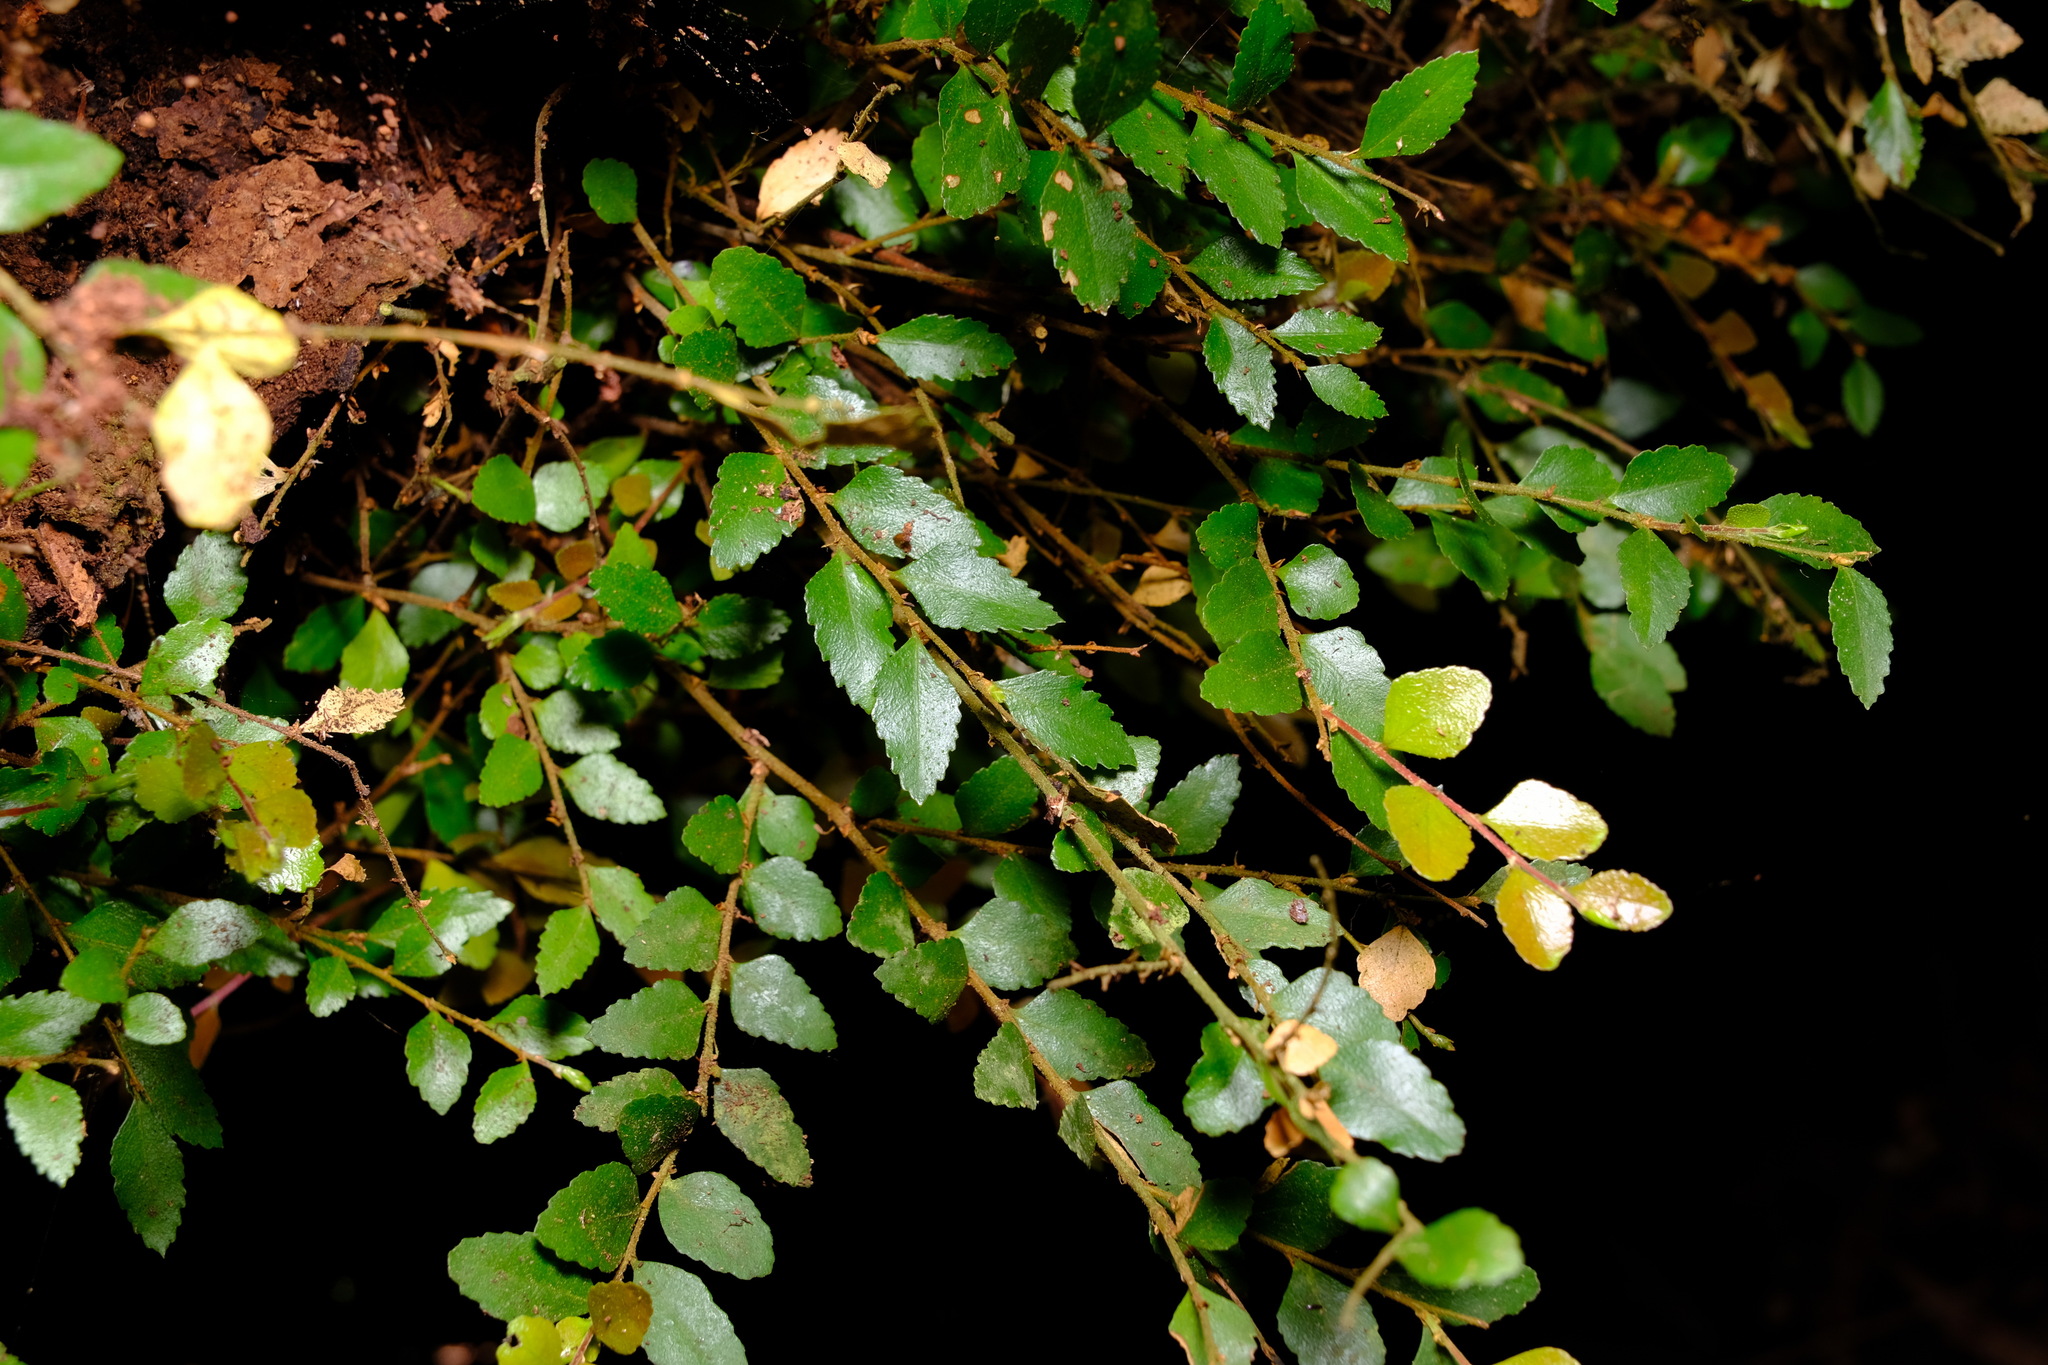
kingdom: Plantae
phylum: Tracheophyta
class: Magnoliopsida
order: Fagales
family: Nothofagaceae
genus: Nothofagus
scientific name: Nothofagus cunninghamii
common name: Myrtle beech
